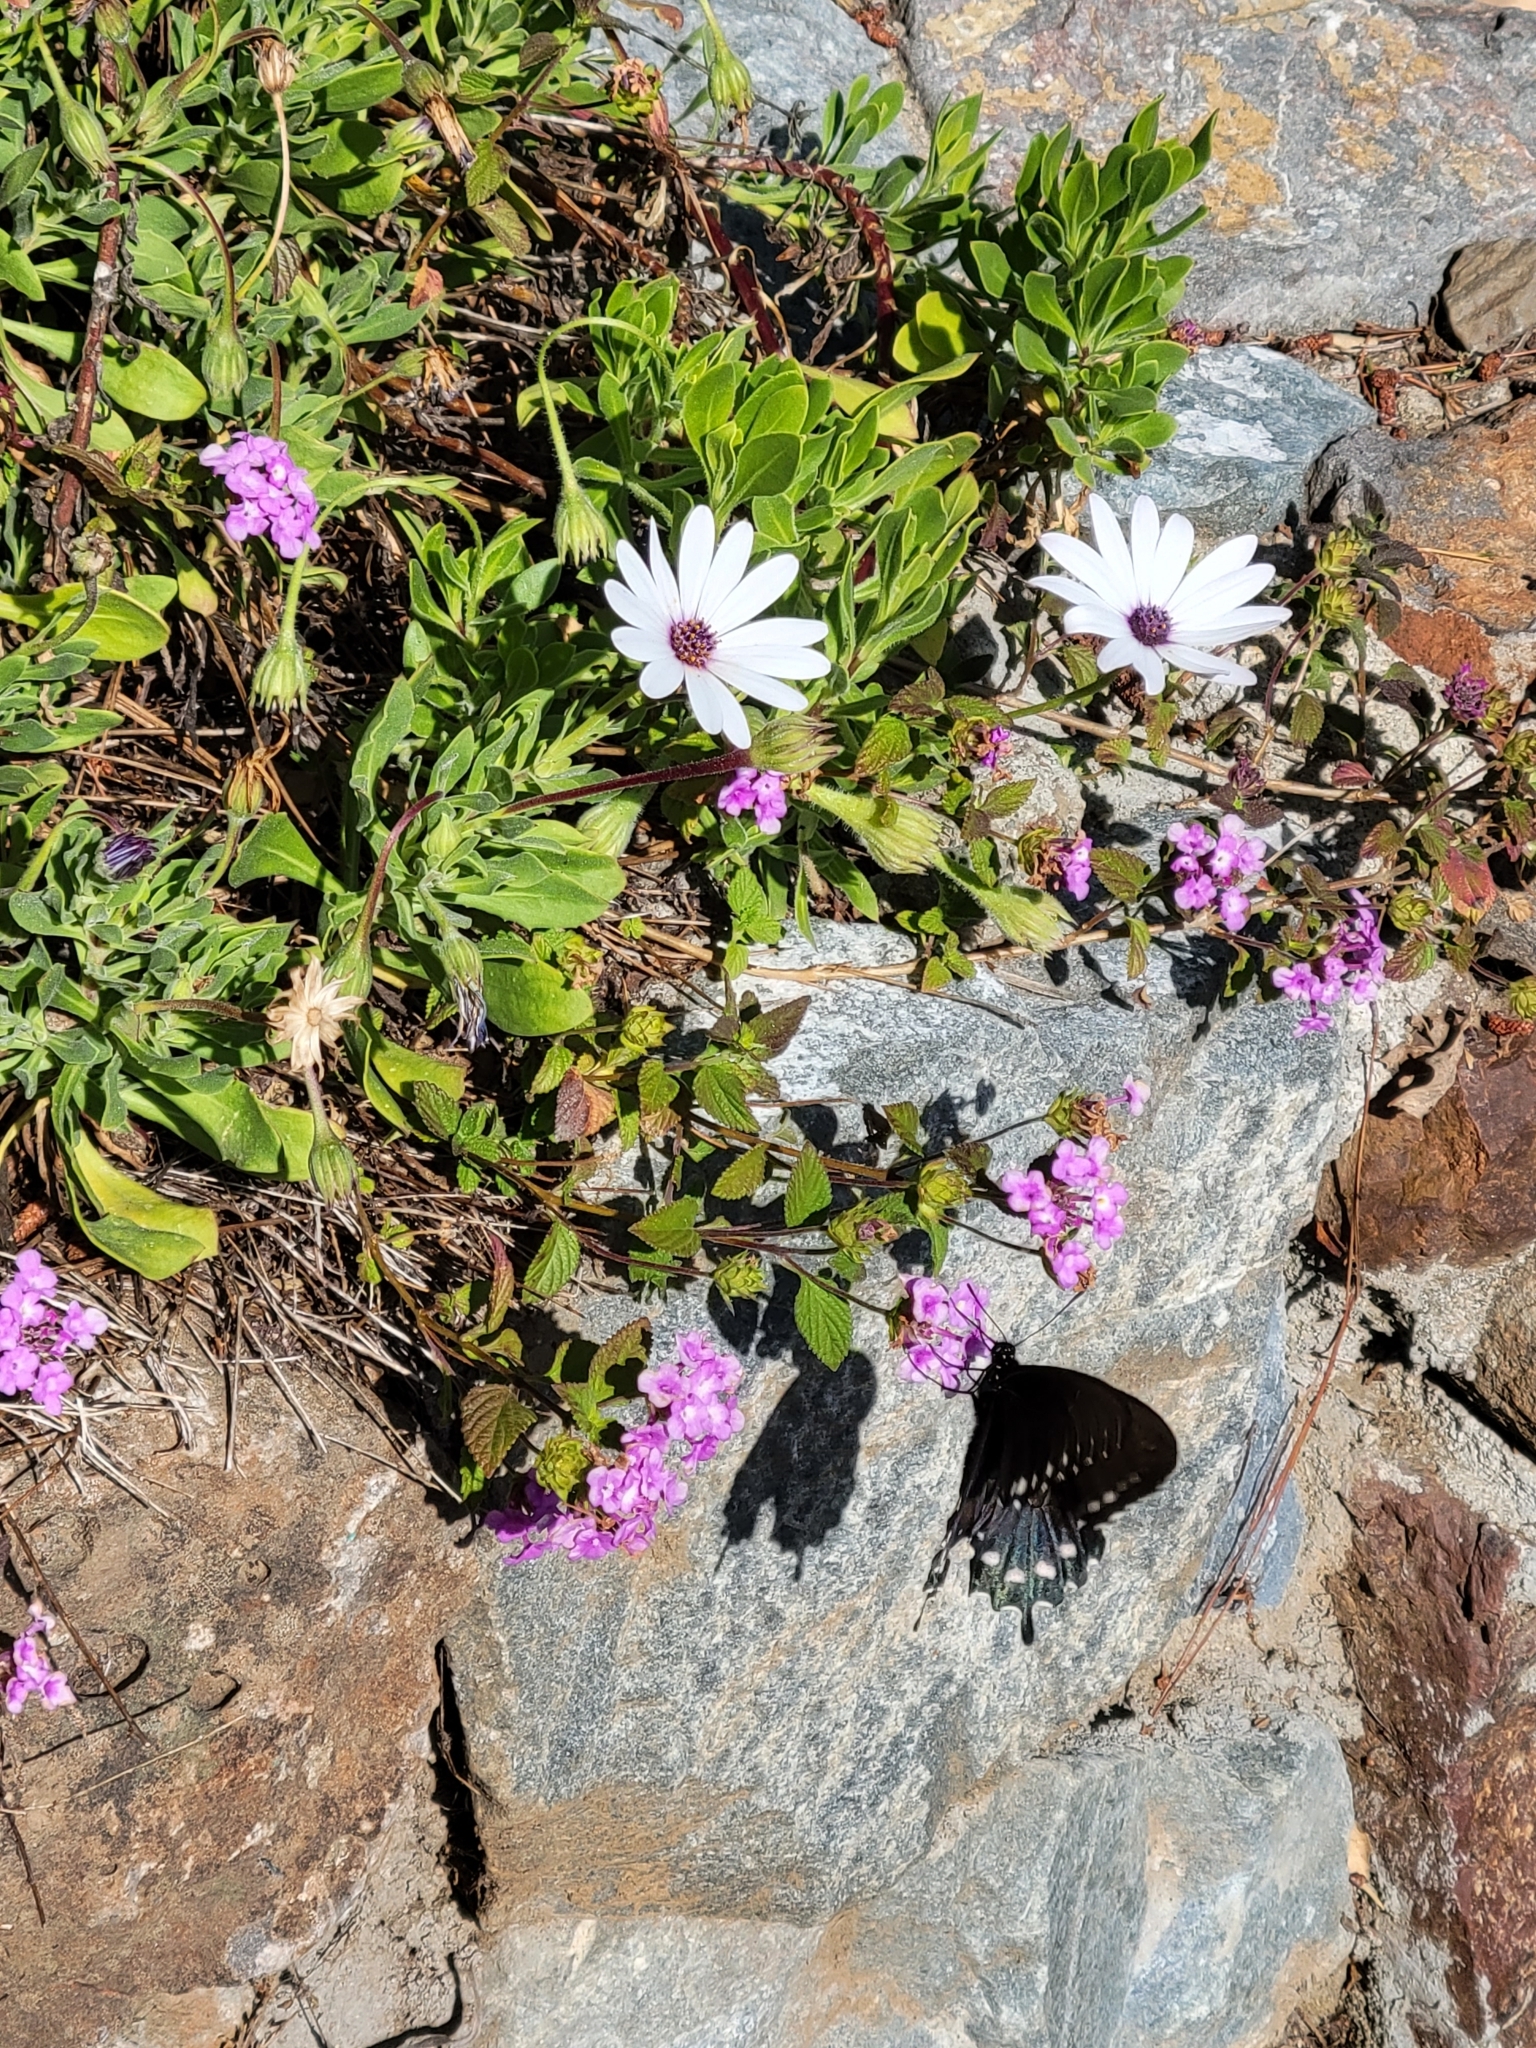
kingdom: Animalia
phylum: Arthropoda
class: Insecta
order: Lepidoptera
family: Papilionidae
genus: Battus
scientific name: Battus philenor
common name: Pipevine swallowtail
